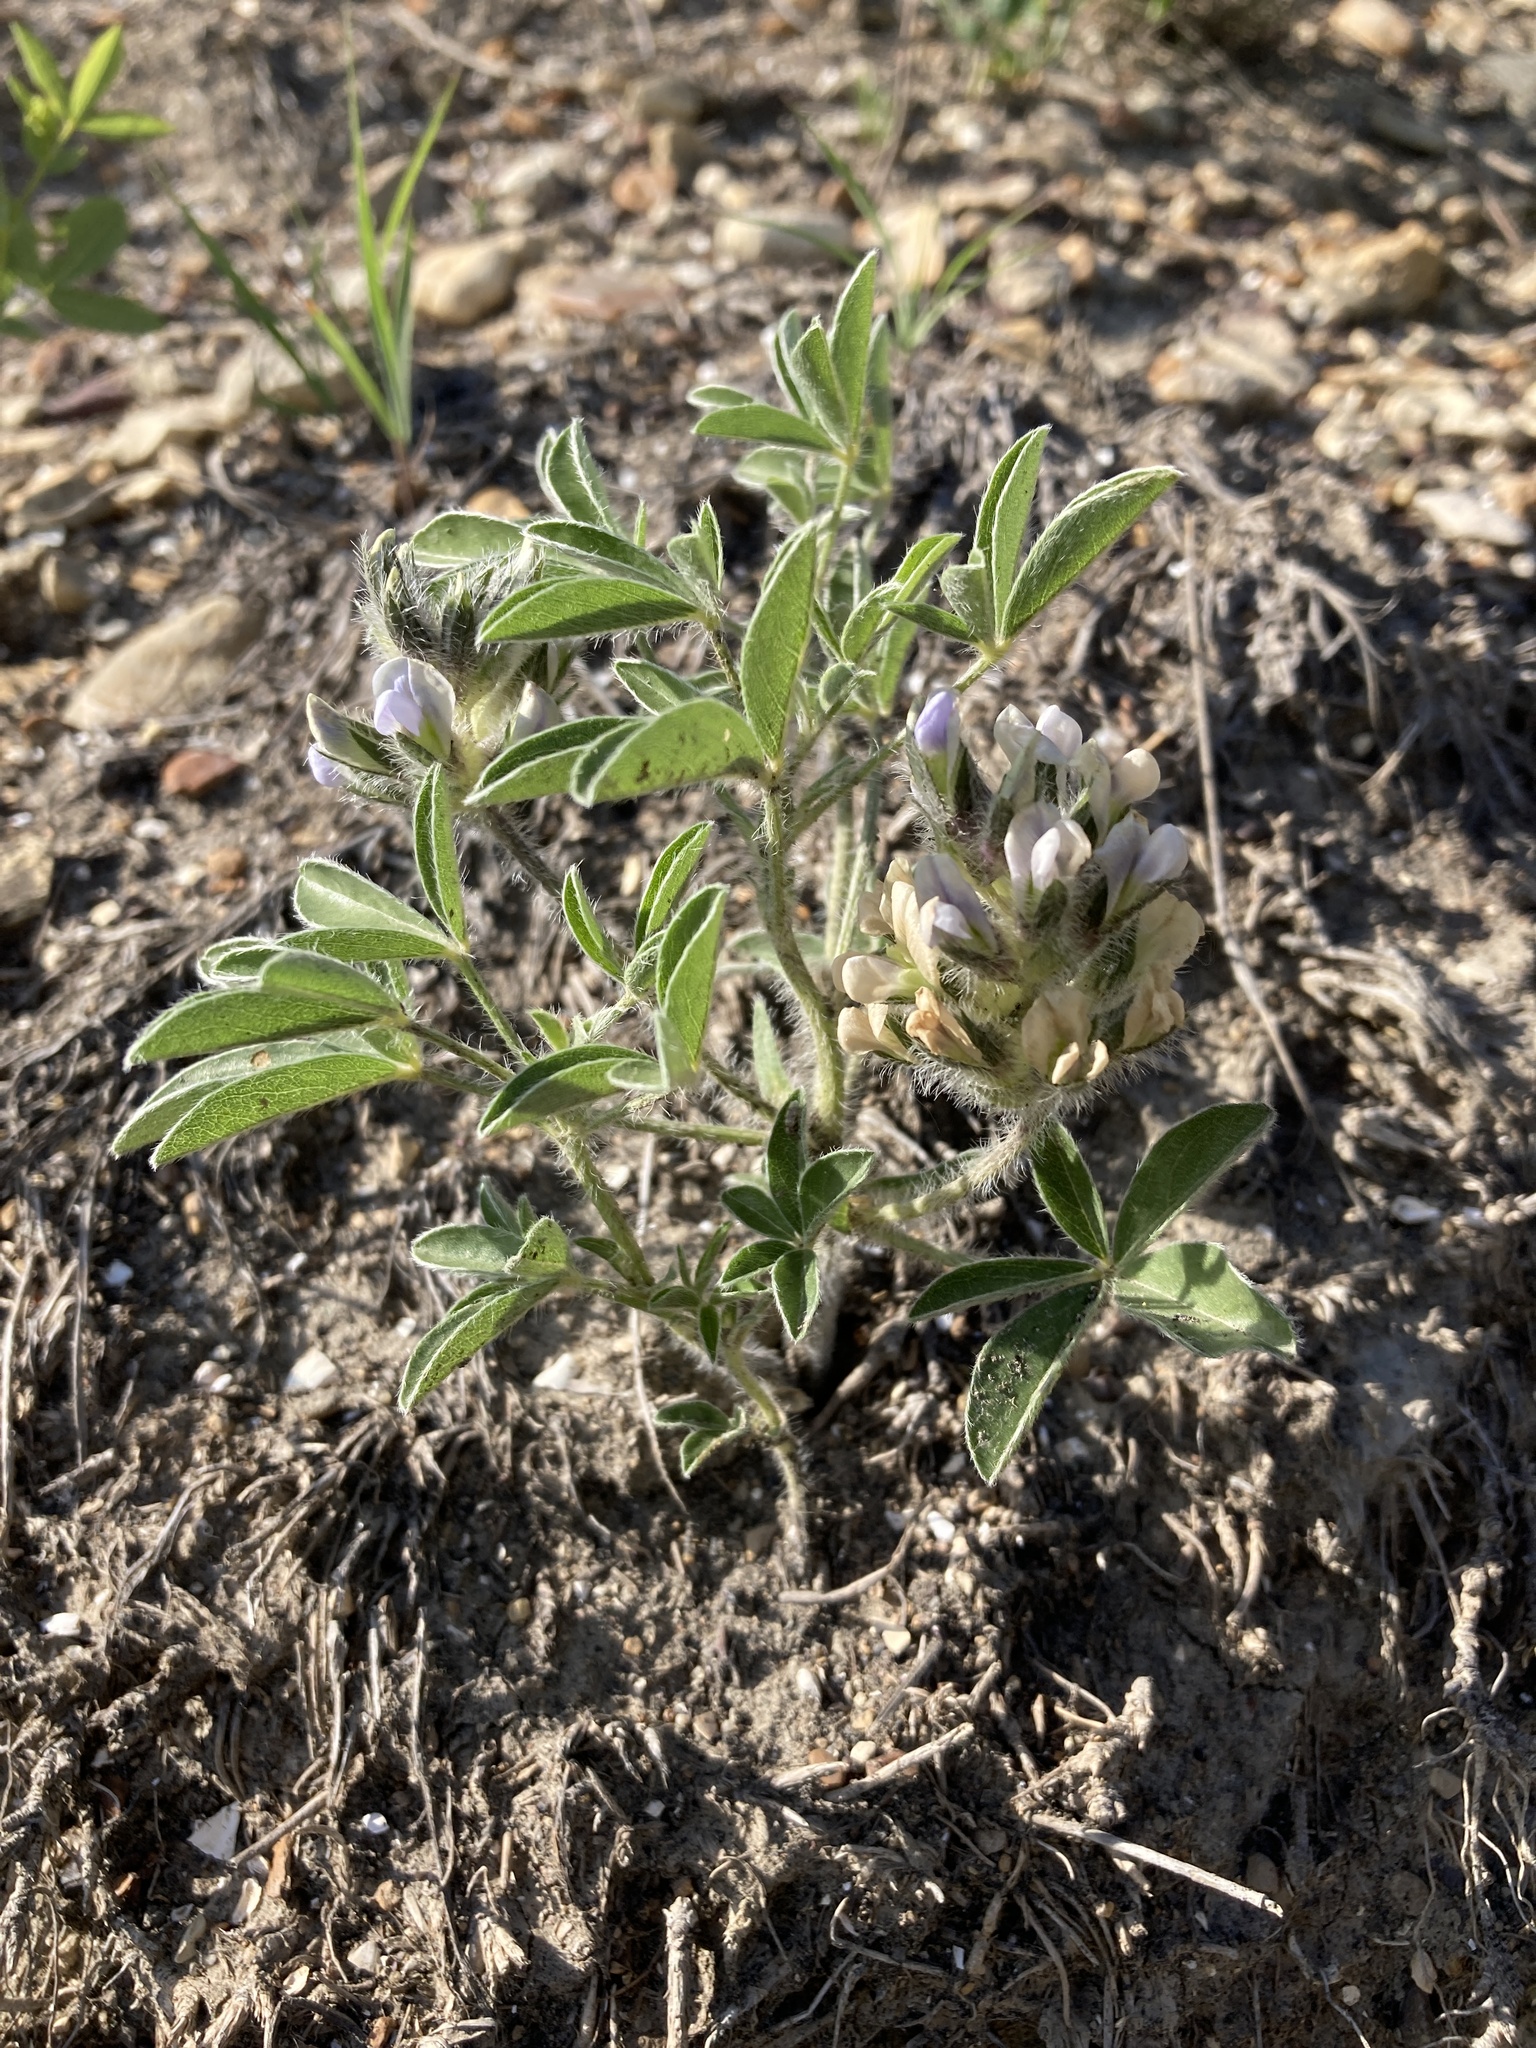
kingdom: Plantae
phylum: Tracheophyta
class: Magnoliopsida
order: Fabales
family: Fabaceae
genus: Pediomelum
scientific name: Pediomelum esculentum
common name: Indian-turnip
